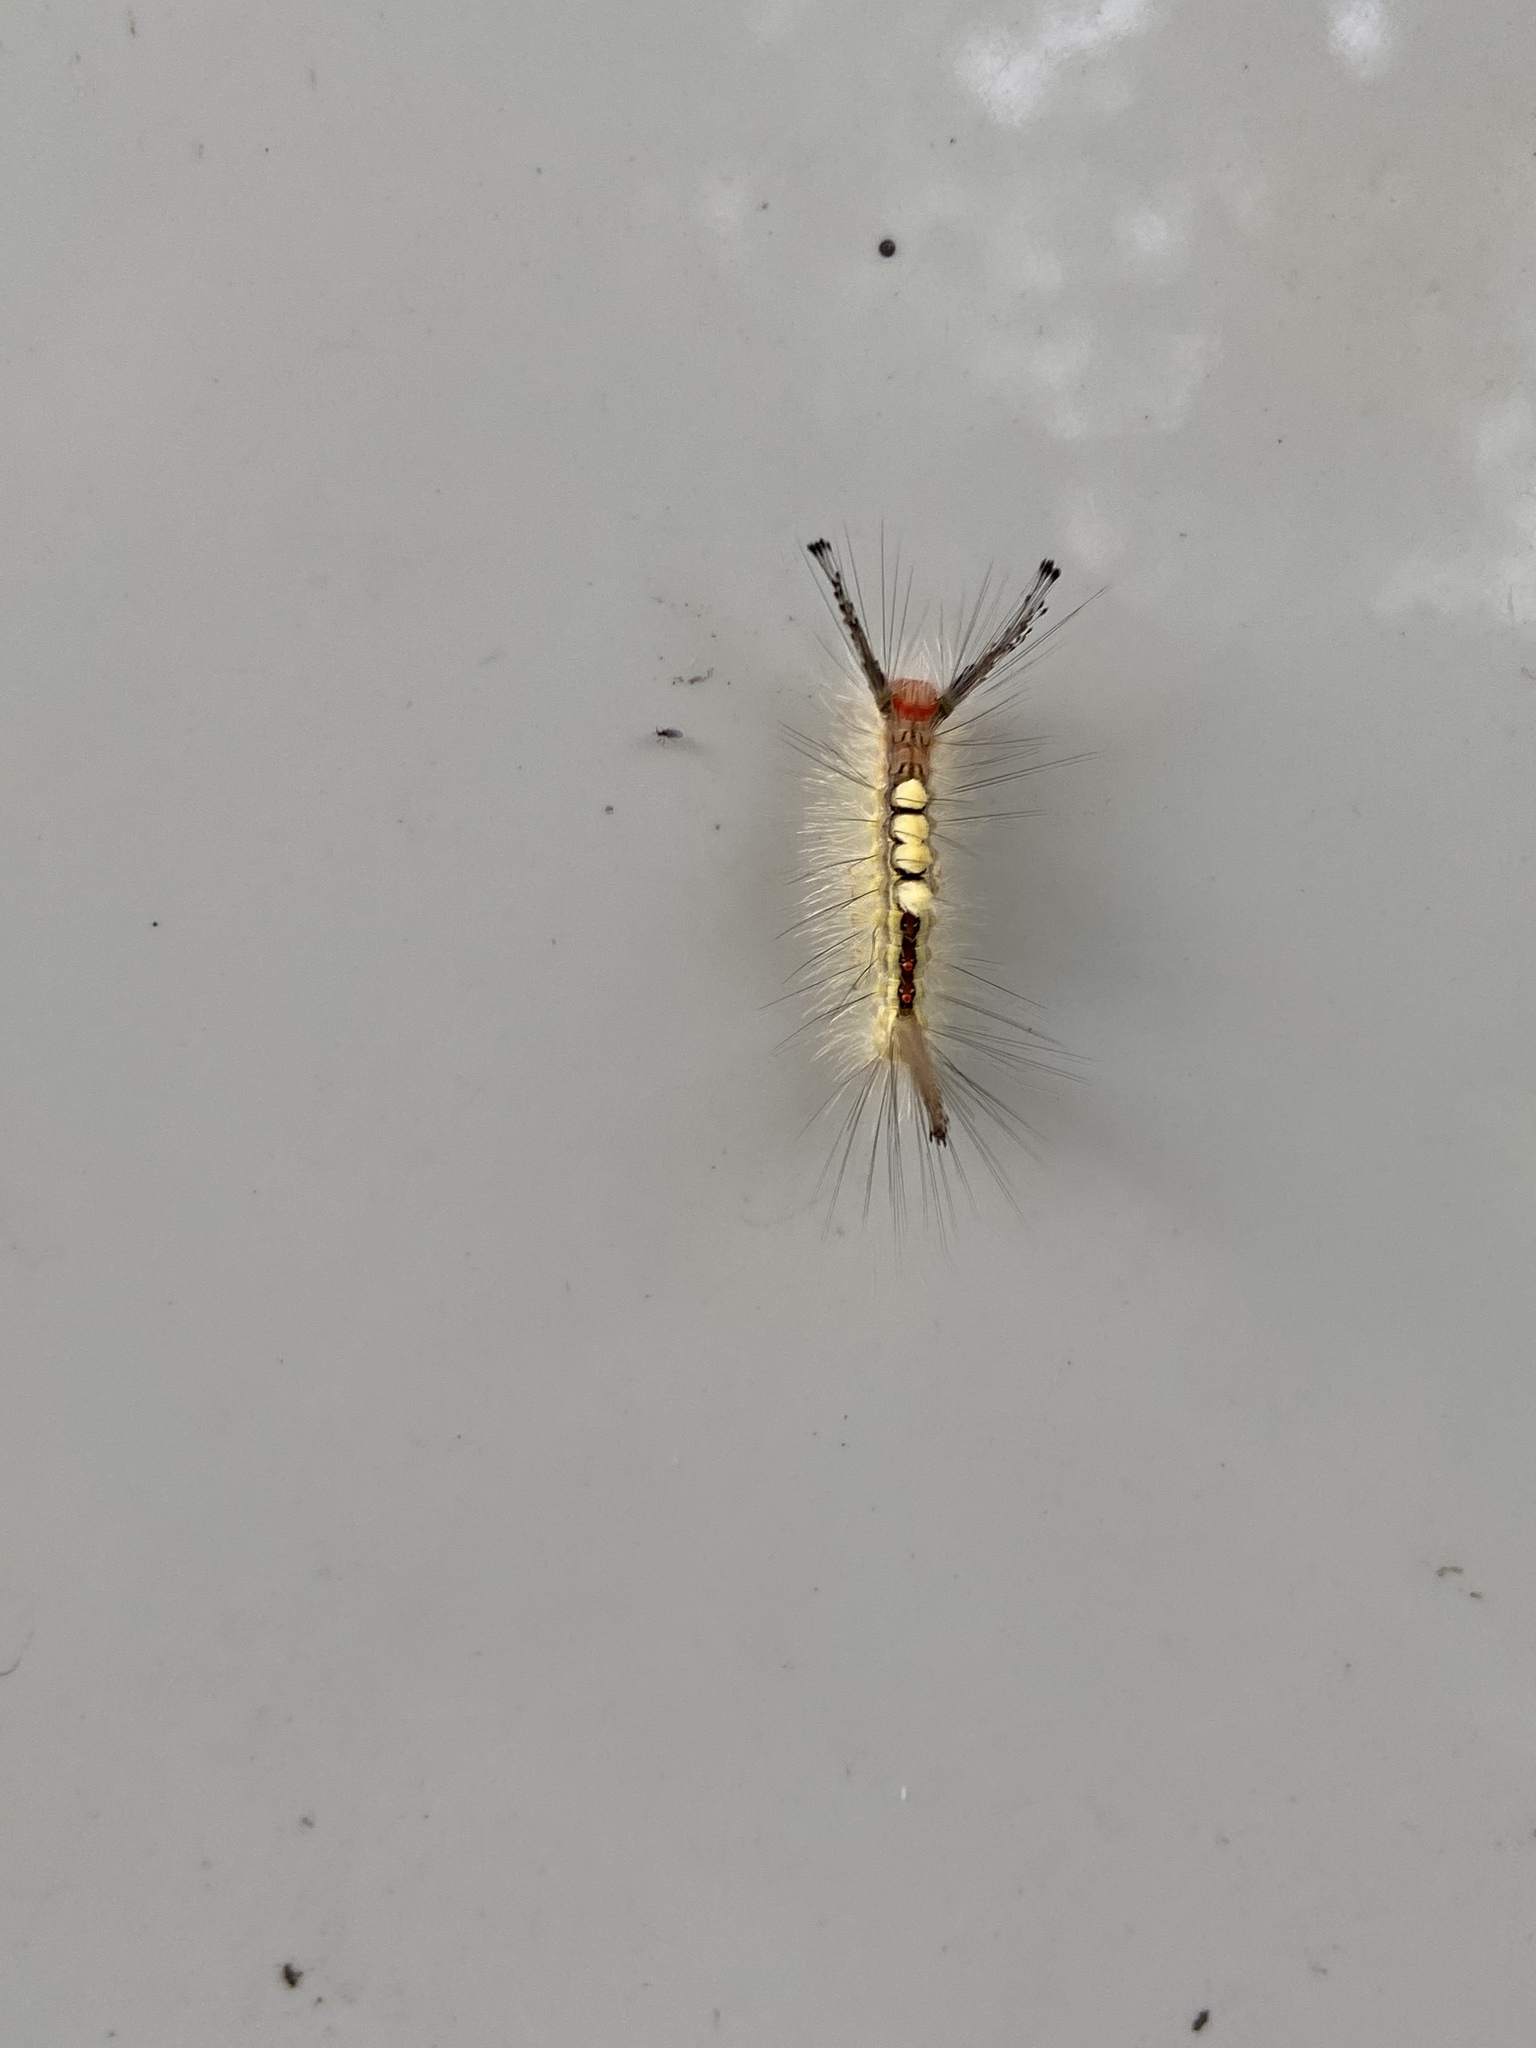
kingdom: Animalia
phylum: Arthropoda
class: Insecta
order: Lepidoptera
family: Erebidae
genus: Orgyia
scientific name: Orgyia leucostigma
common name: White-marked tussock moth
